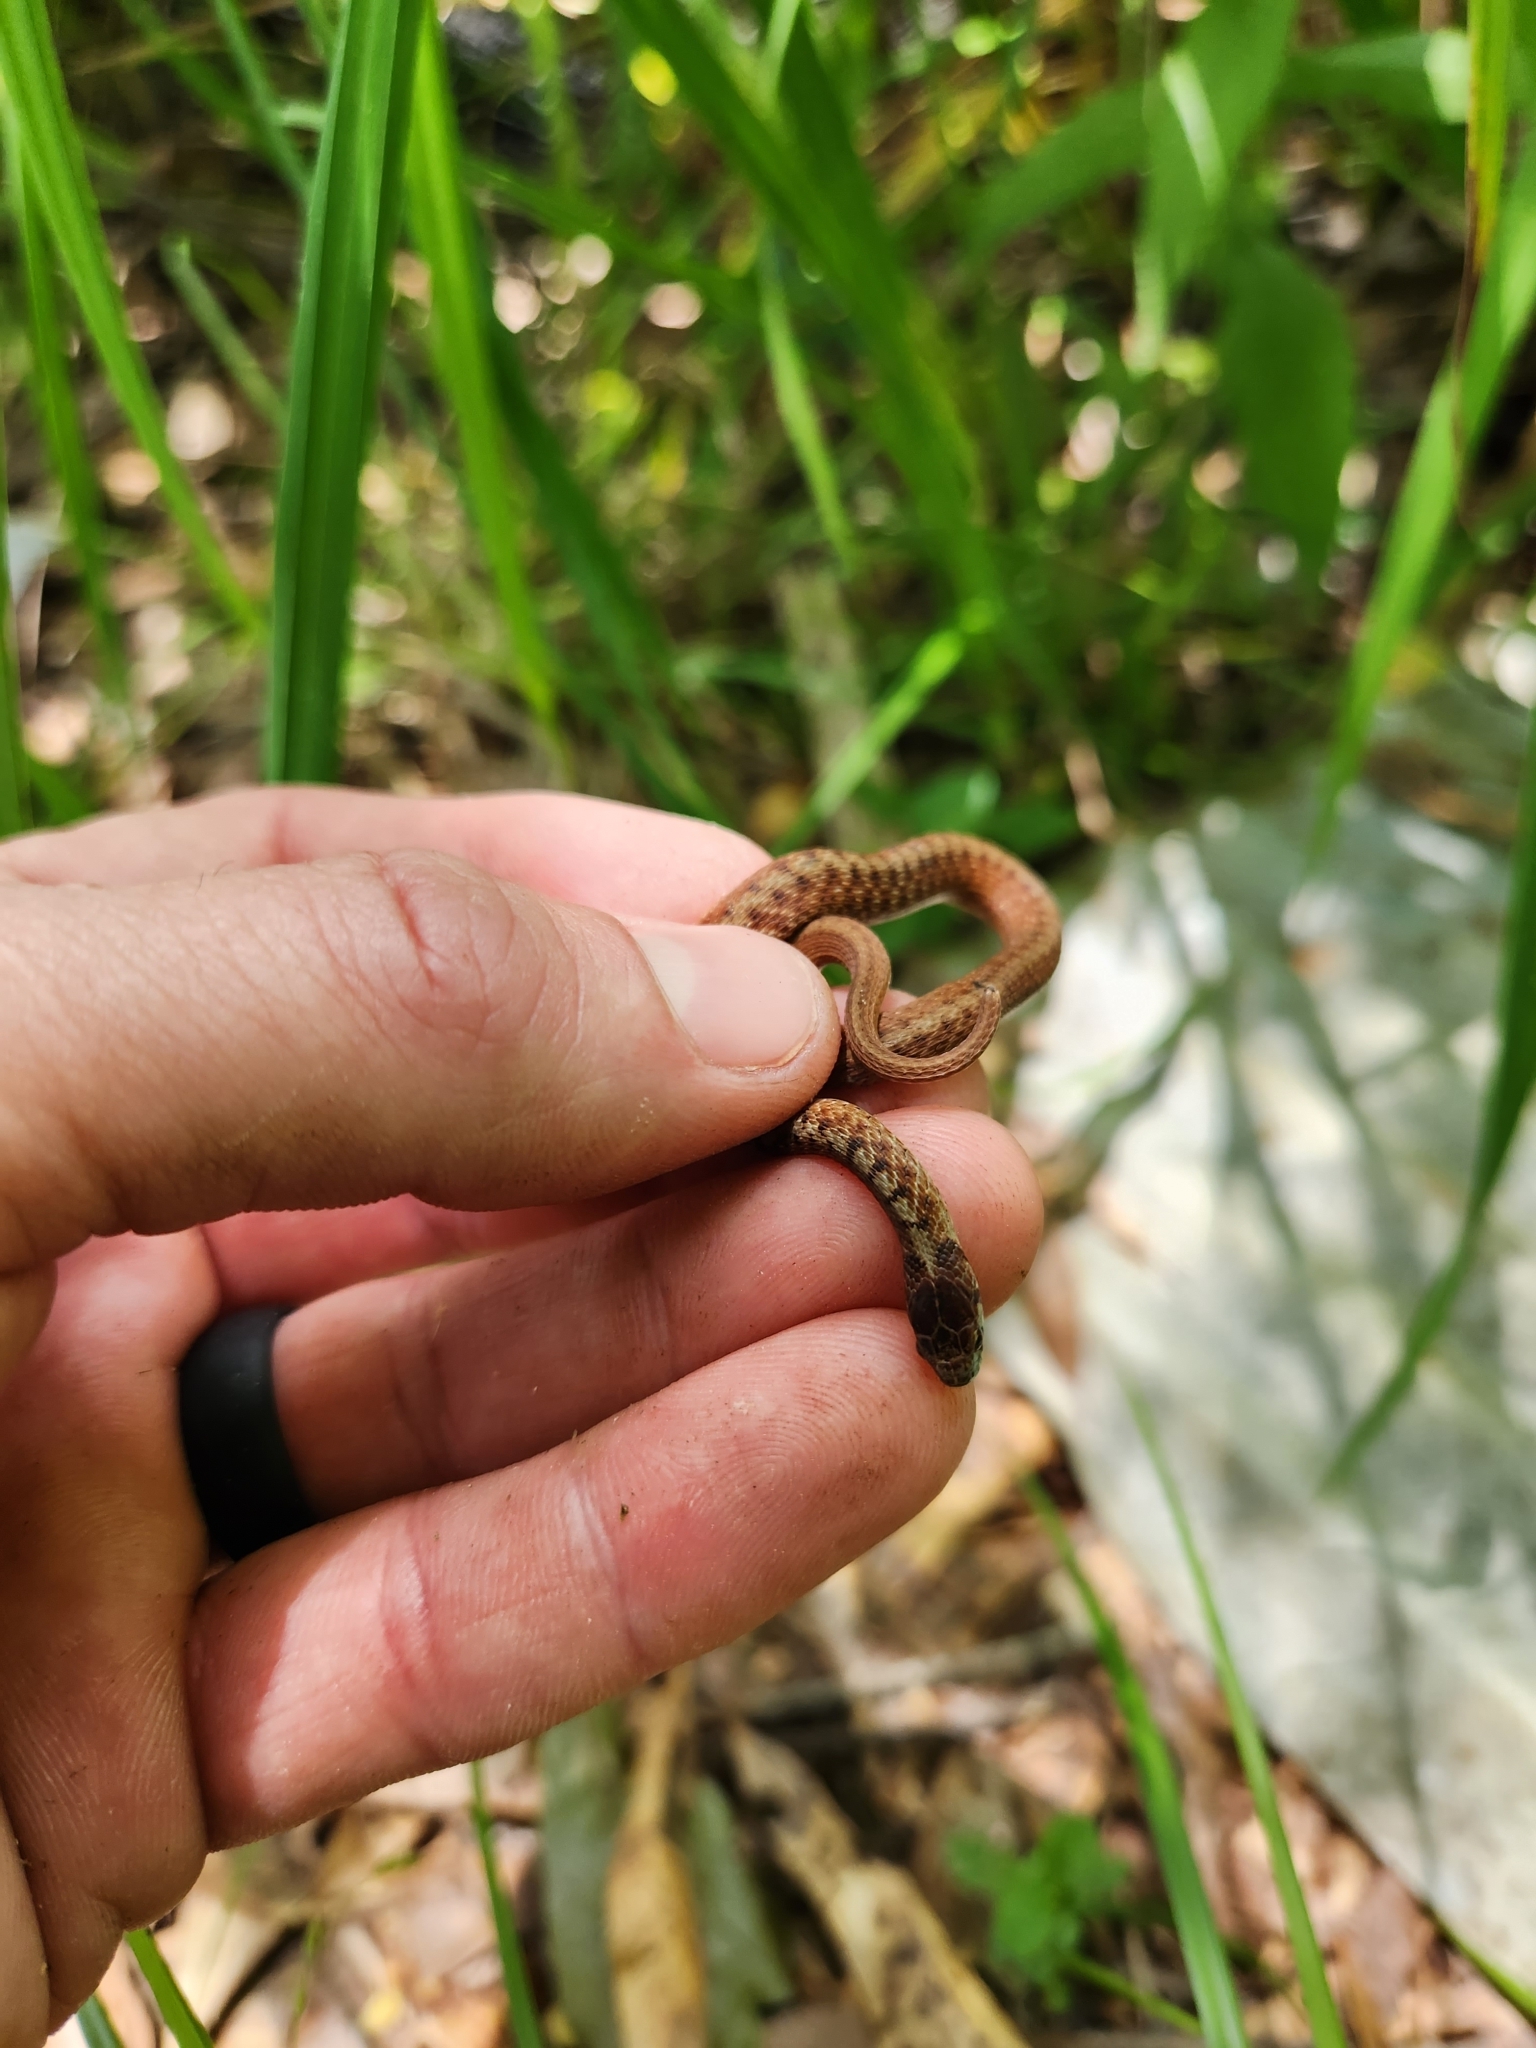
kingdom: Animalia
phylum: Chordata
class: Squamata
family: Colubridae
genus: Storeria
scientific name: Storeria dekayi
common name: (dekay’s) brown snake
